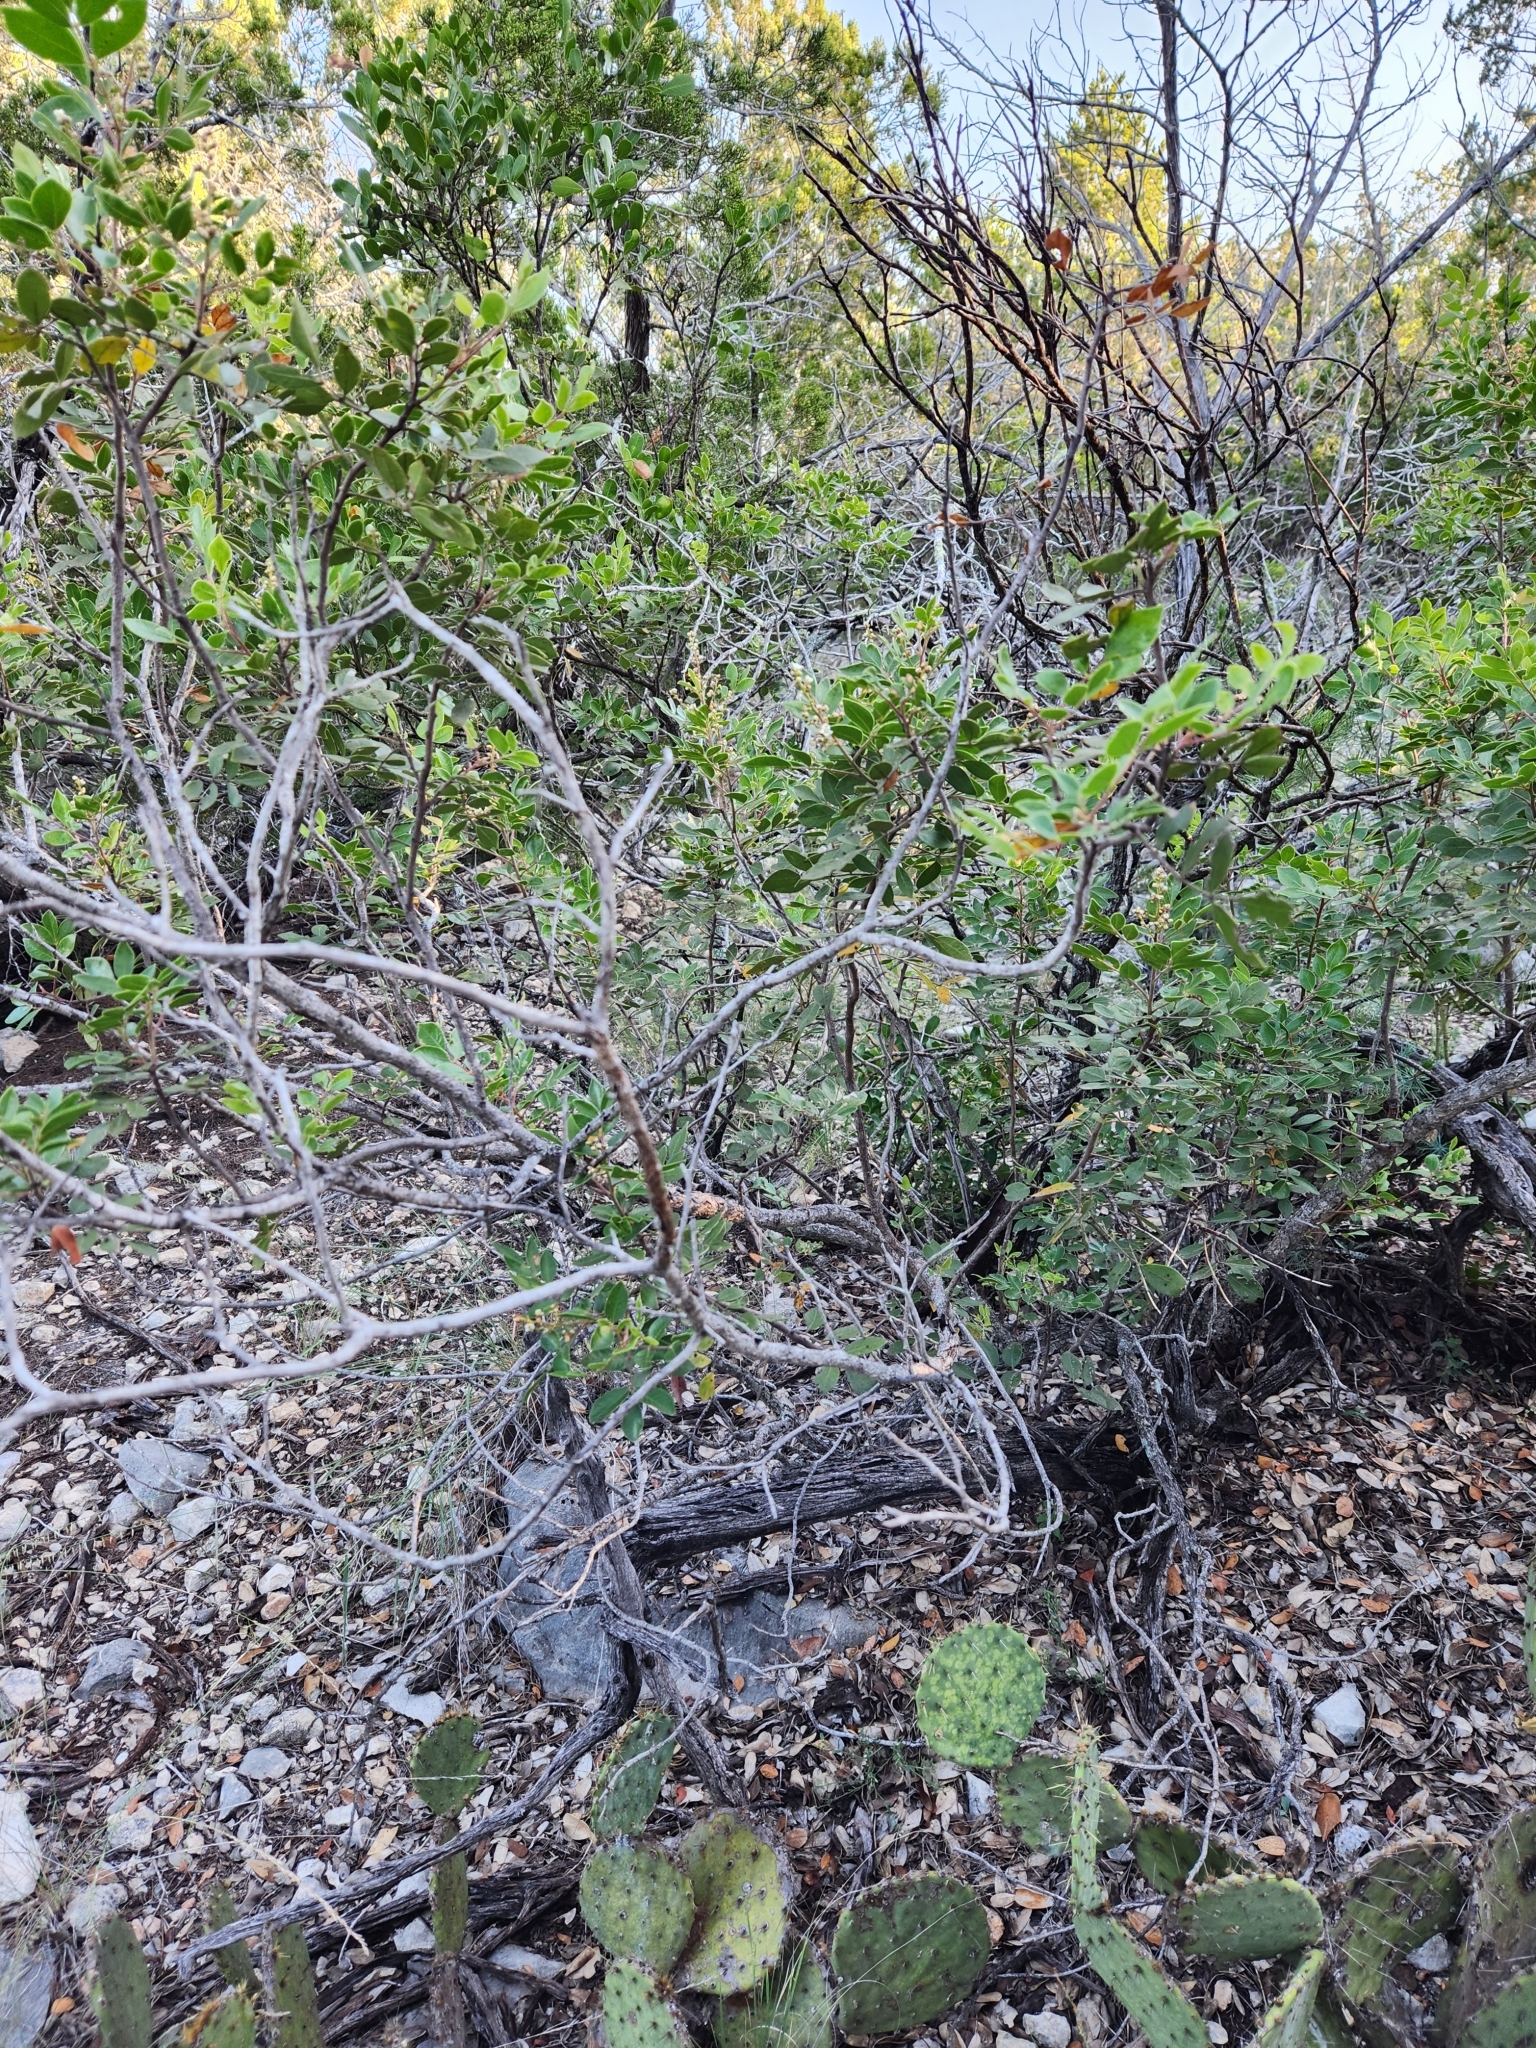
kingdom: Plantae
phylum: Tracheophyta
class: Magnoliopsida
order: Sapindales
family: Anacardiaceae
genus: Rhus
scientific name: Rhus virens
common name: Evergreen sumac
